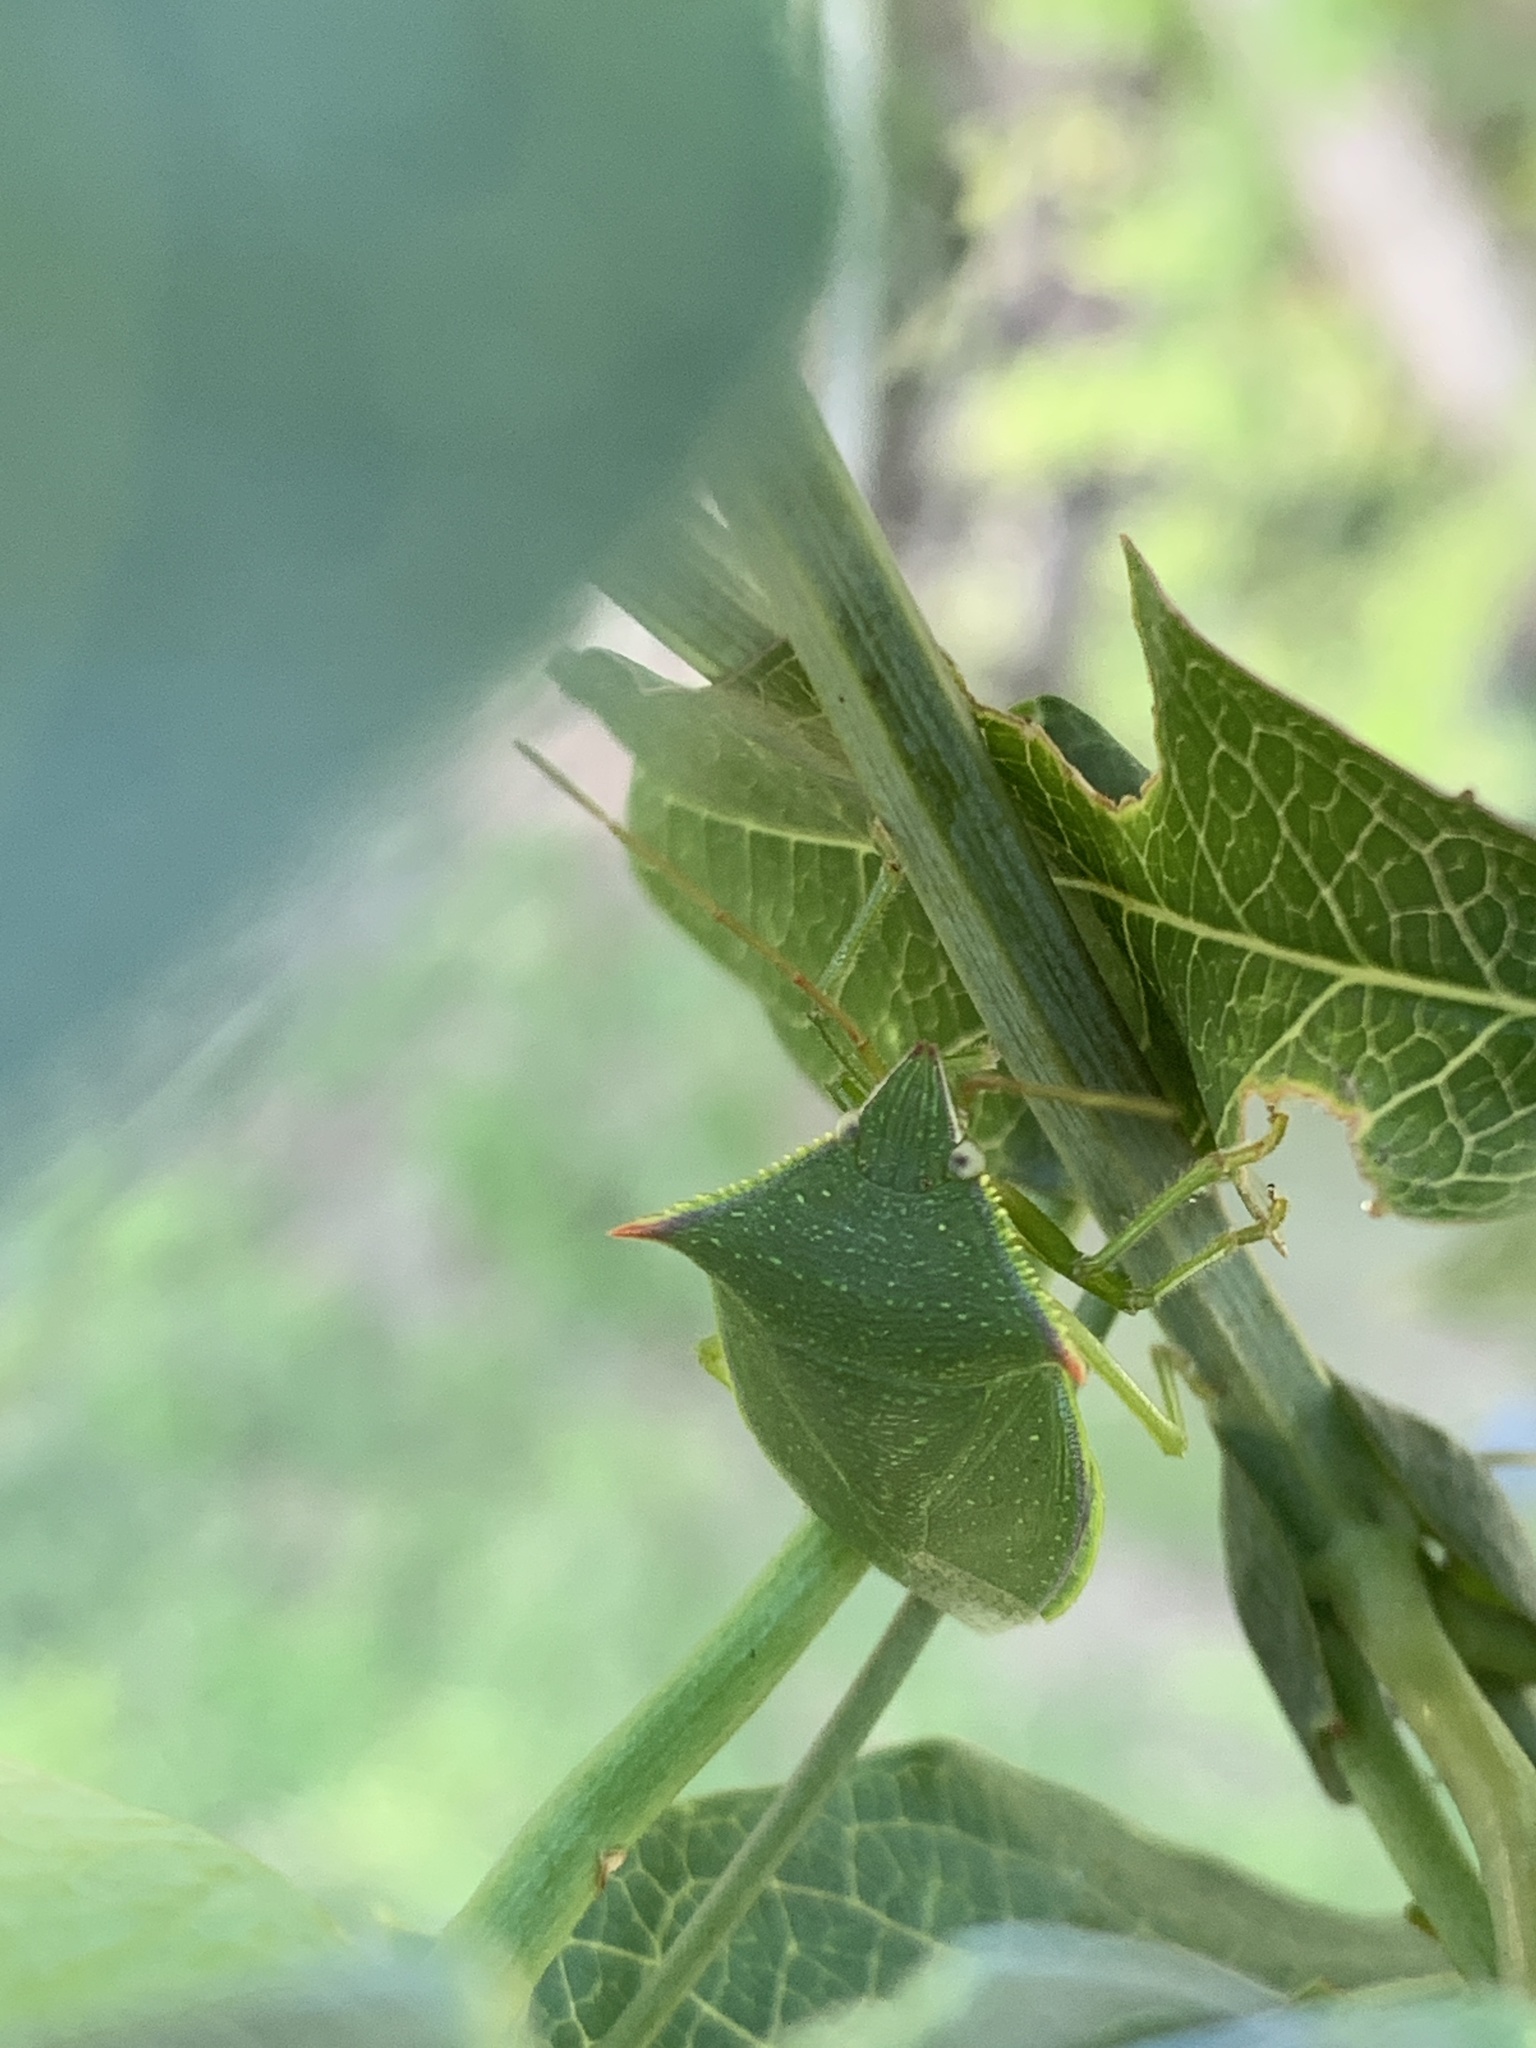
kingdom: Animalia
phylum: Arthropoda
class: Insecta
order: Hemiptera
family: Pentatomidae
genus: Loxa
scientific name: Loxa deducta
